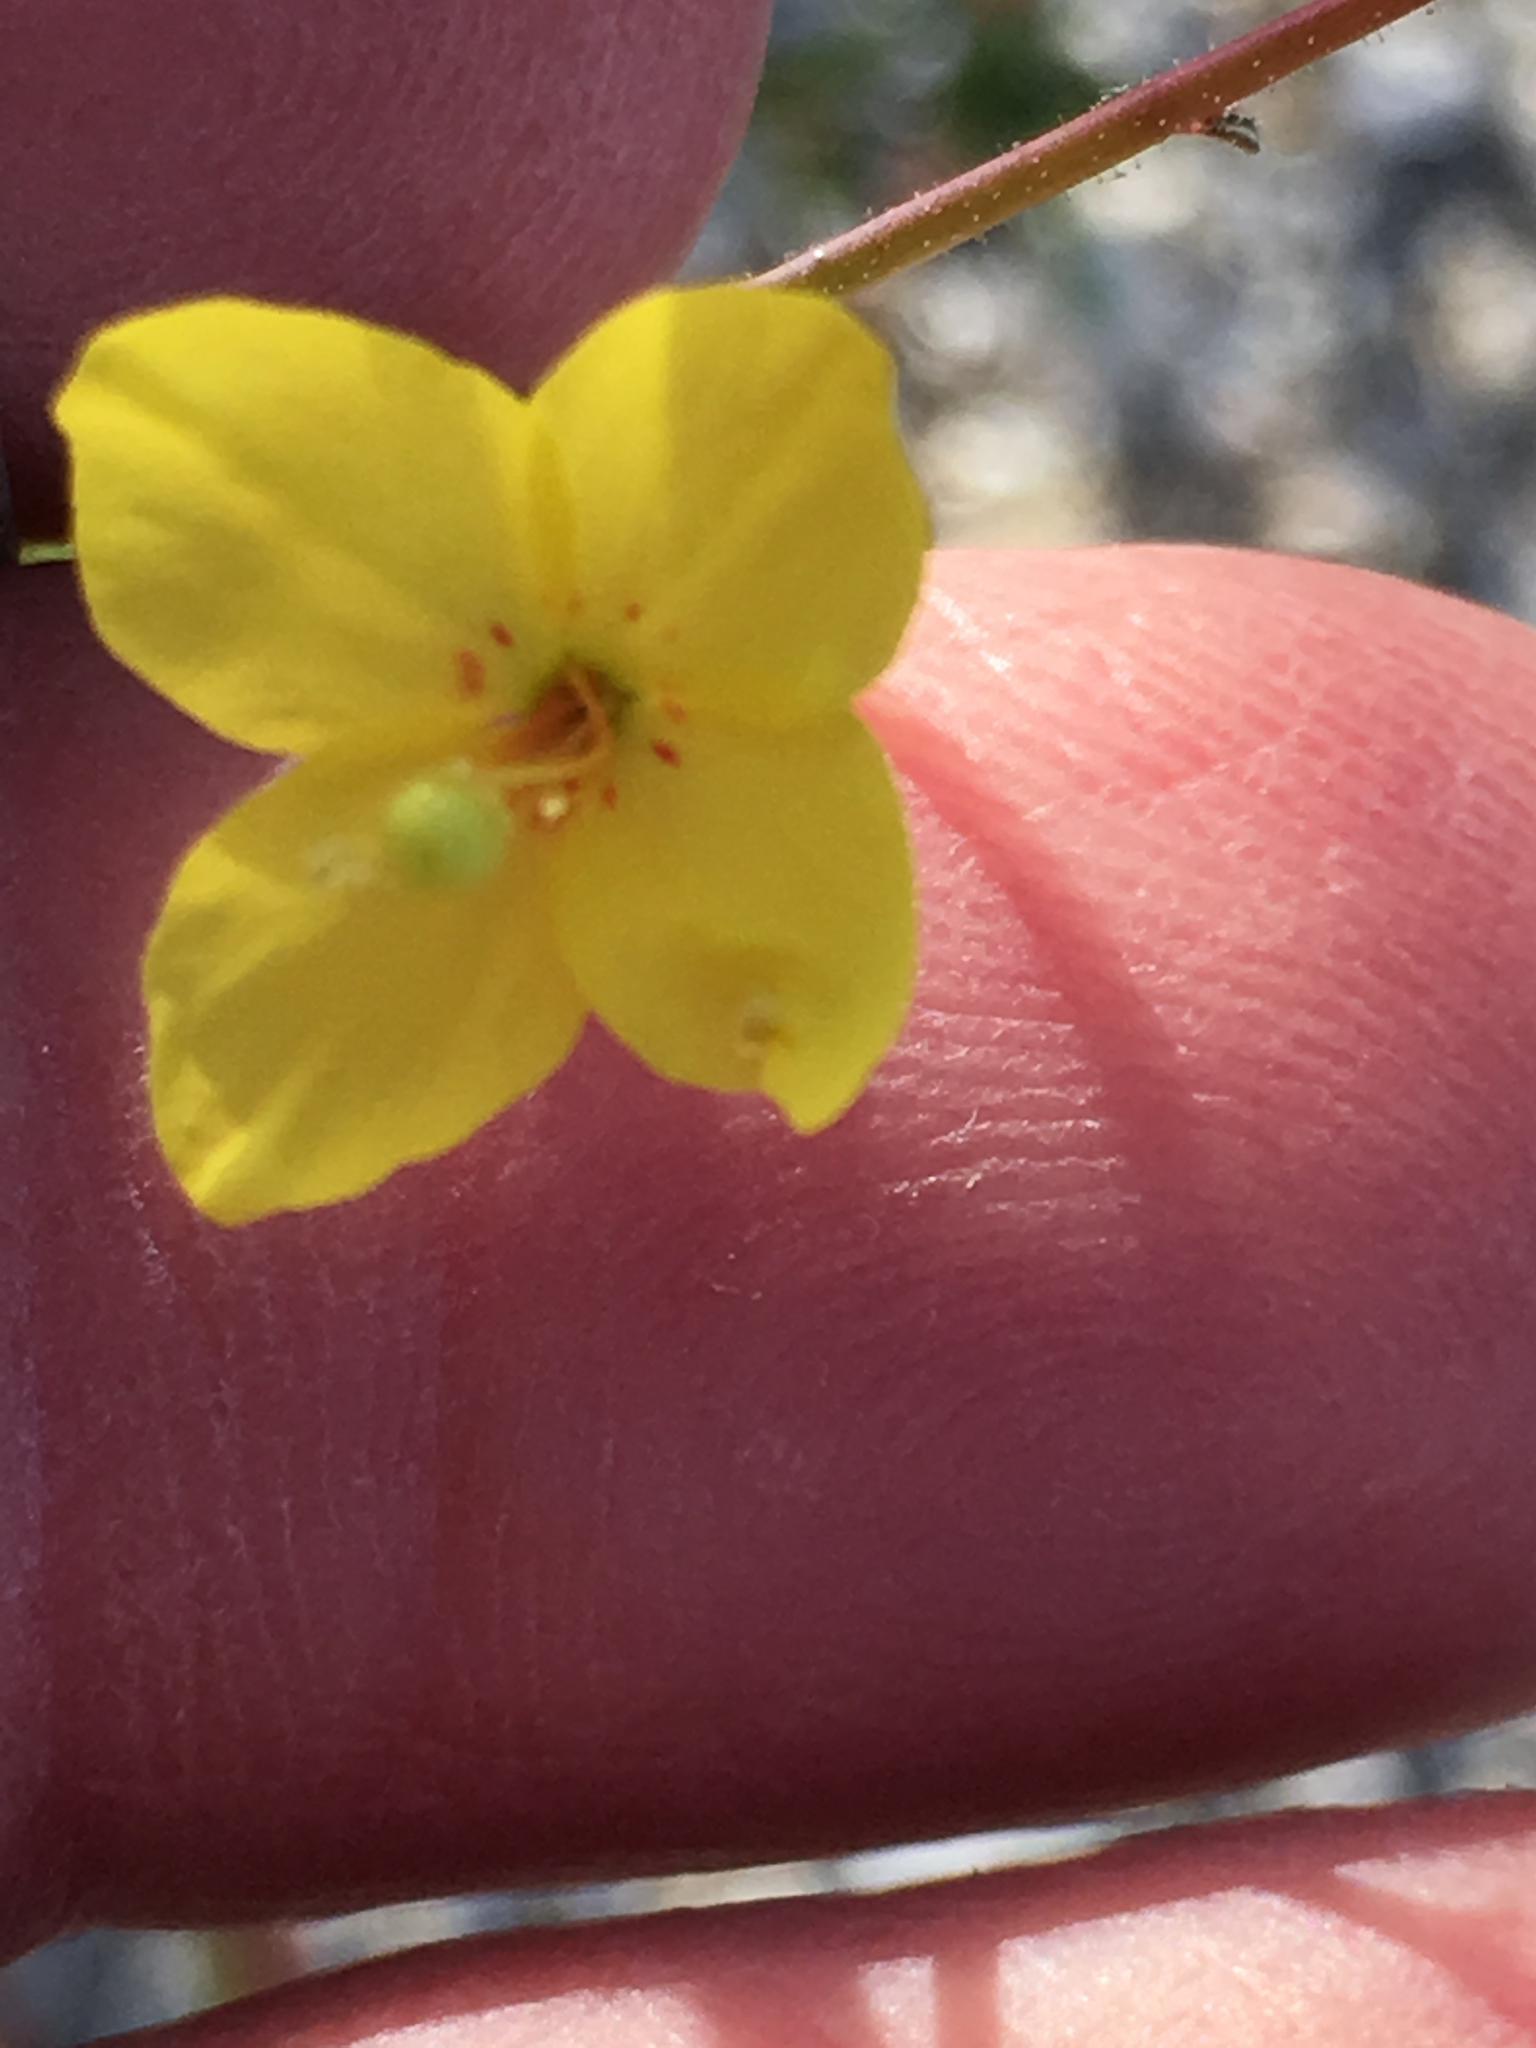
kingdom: Plantae
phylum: Tracheophyta
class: Magnoliopsida
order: Myrtales
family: Onagraceae
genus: Eulobus
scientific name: Eulobus californicus
